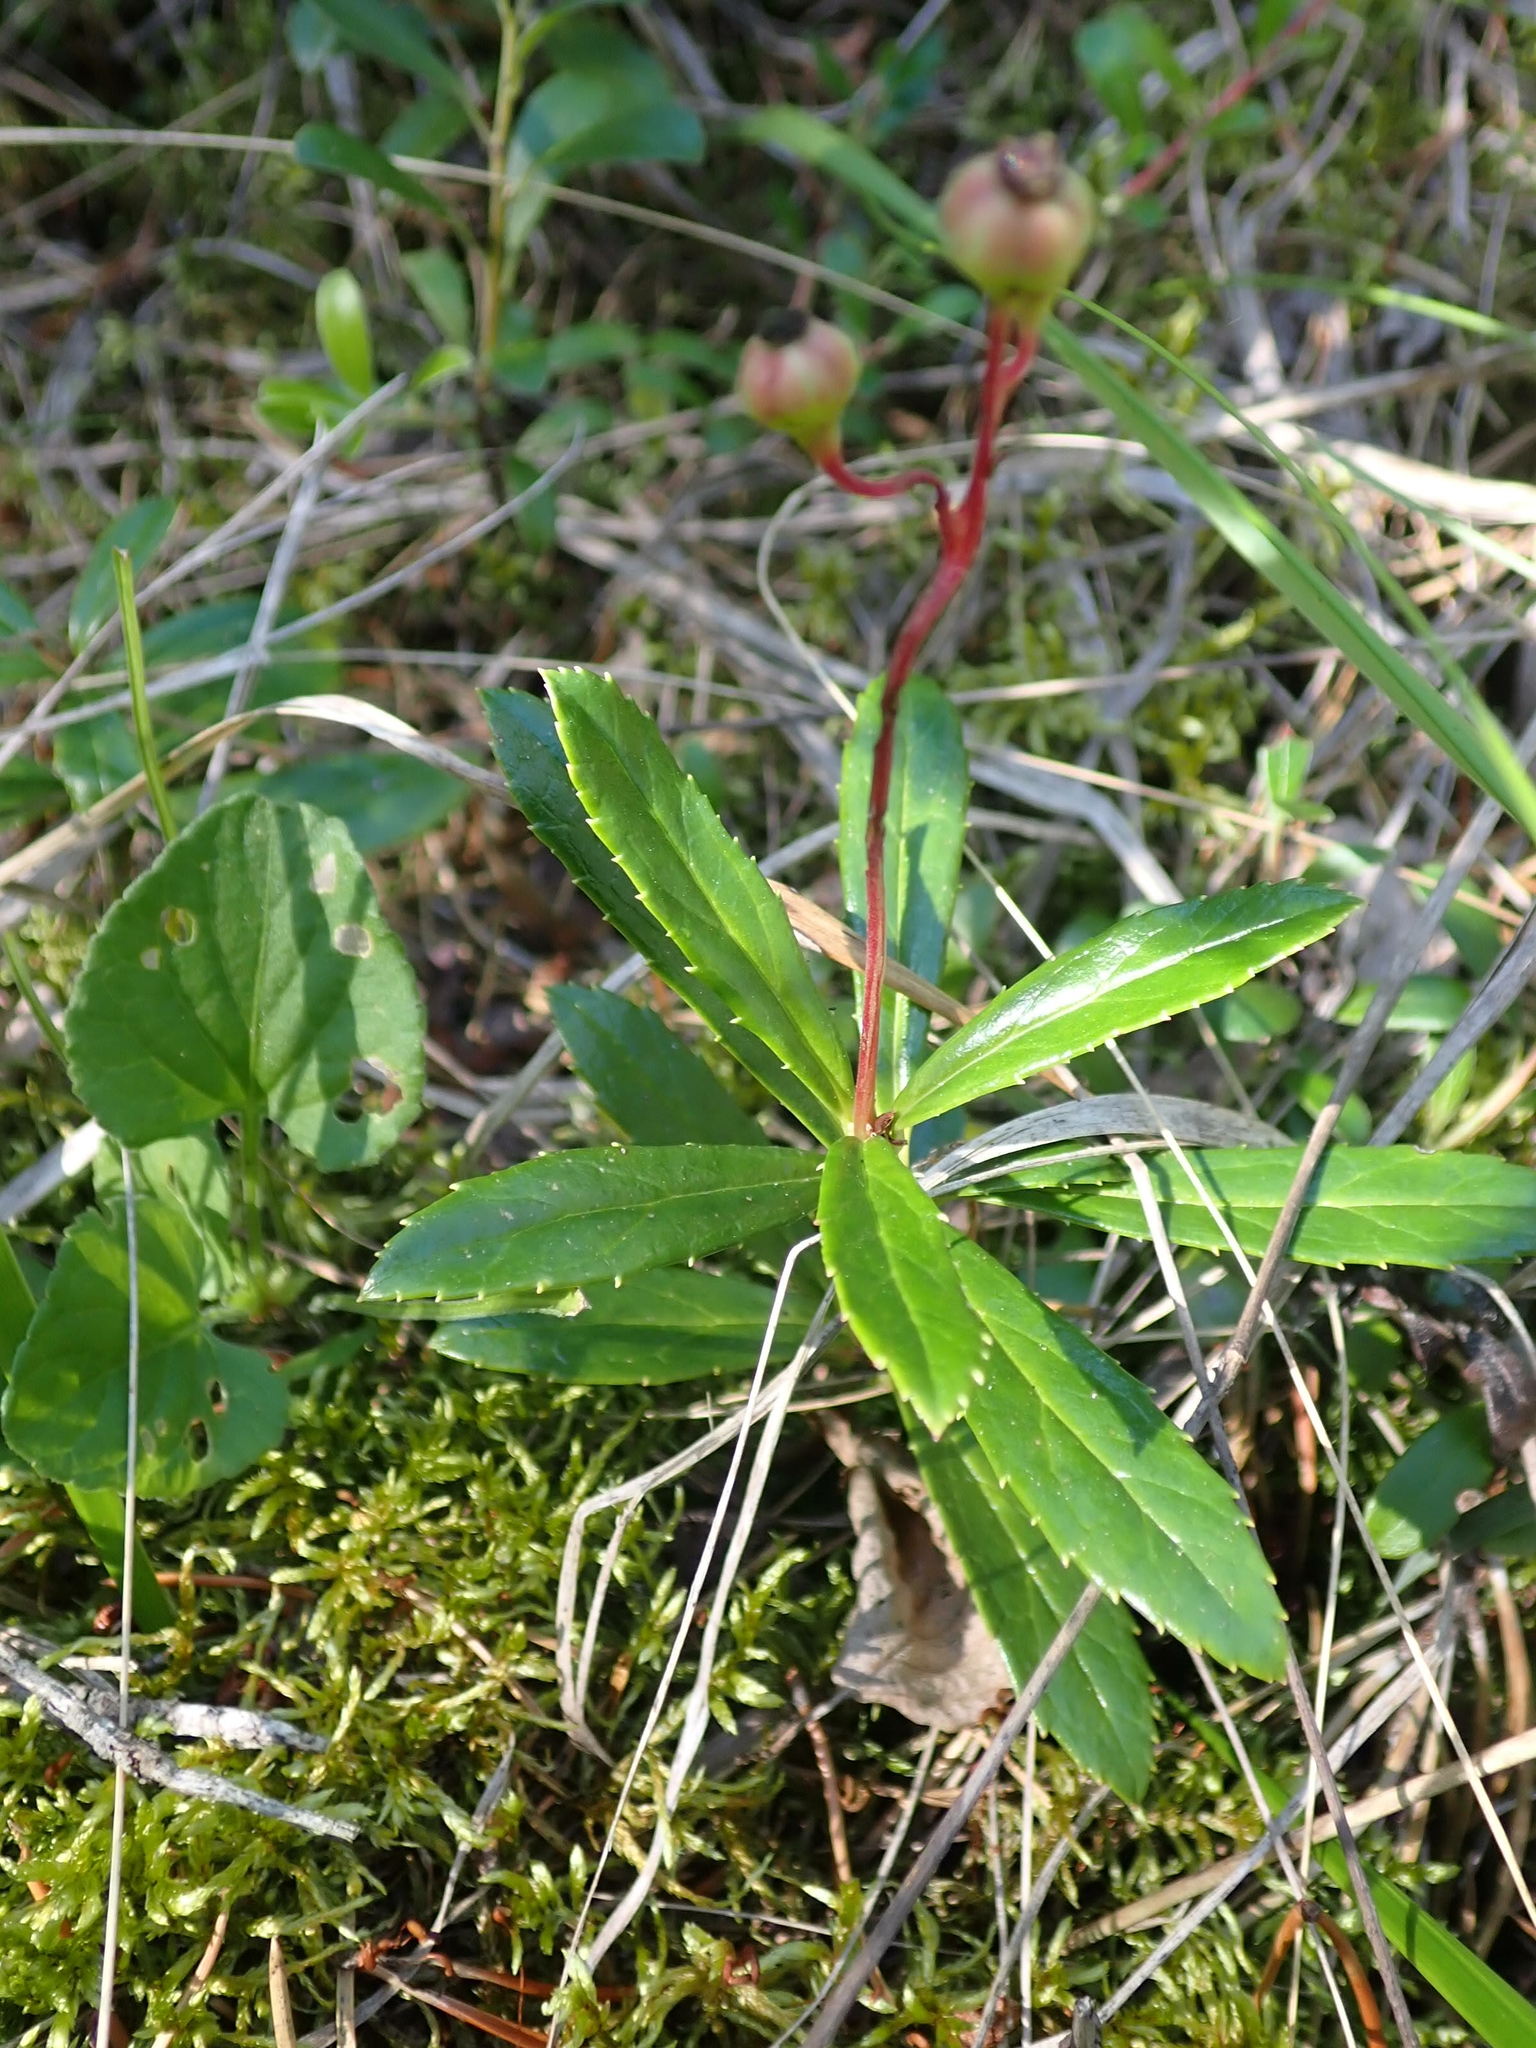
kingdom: Plantae
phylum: Tracheophyta
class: Magnoliopsida
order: Ericales
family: Ericaceae
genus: Chimaphila
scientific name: Chimaphila umbellata
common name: Pipsissewa
